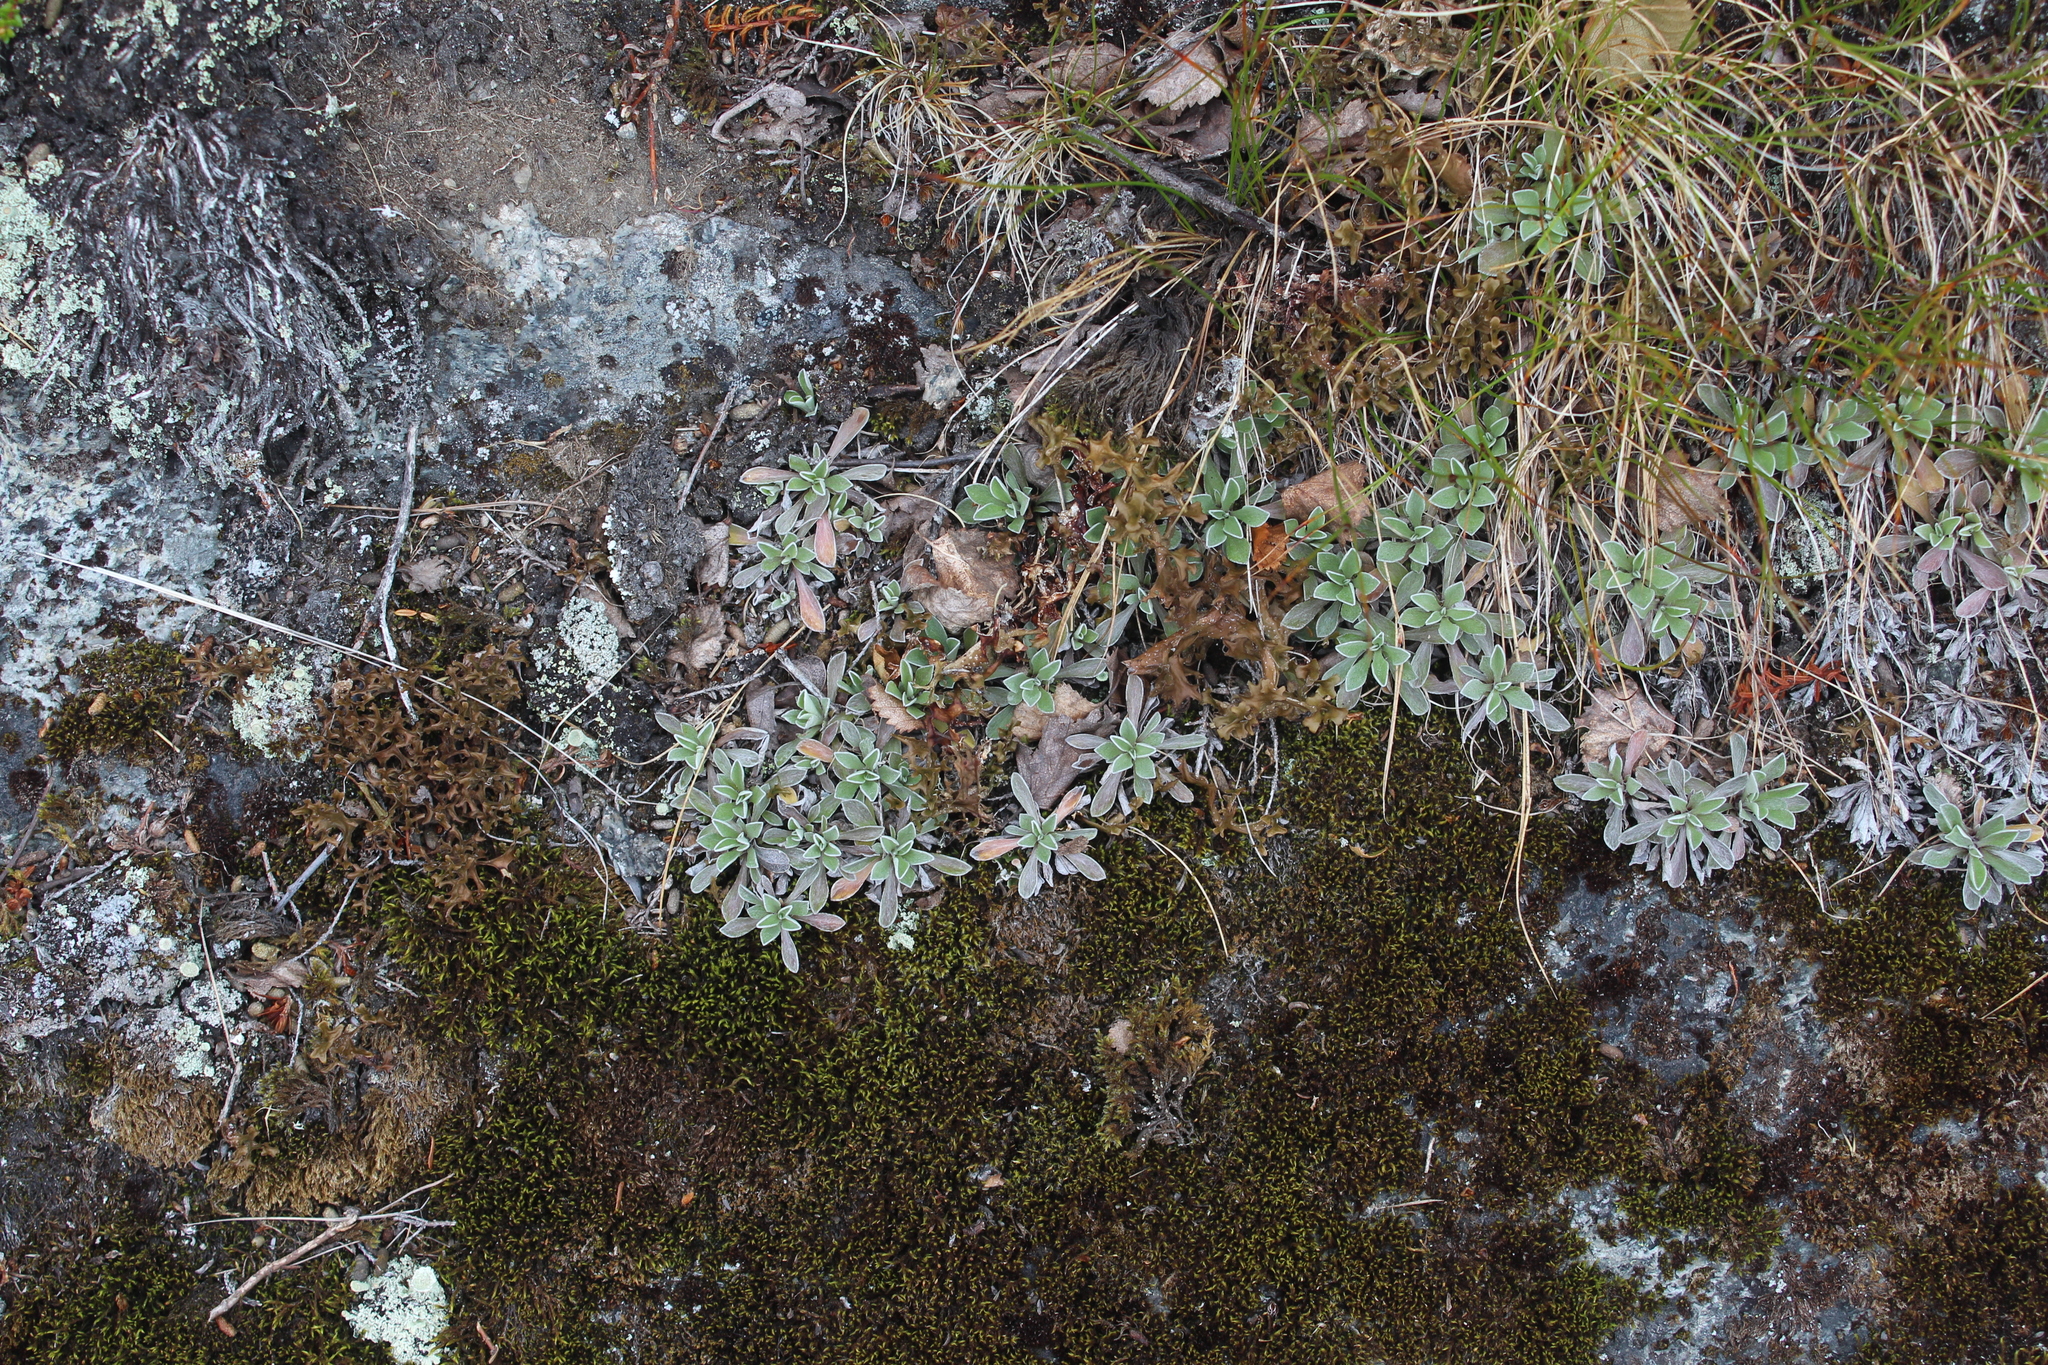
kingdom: Plantae
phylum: Tracheophyta
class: Magnoliopsida
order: Asterales
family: Asteraceae
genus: Antennaria
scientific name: Antennaria dioica
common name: Mountain everlasting
